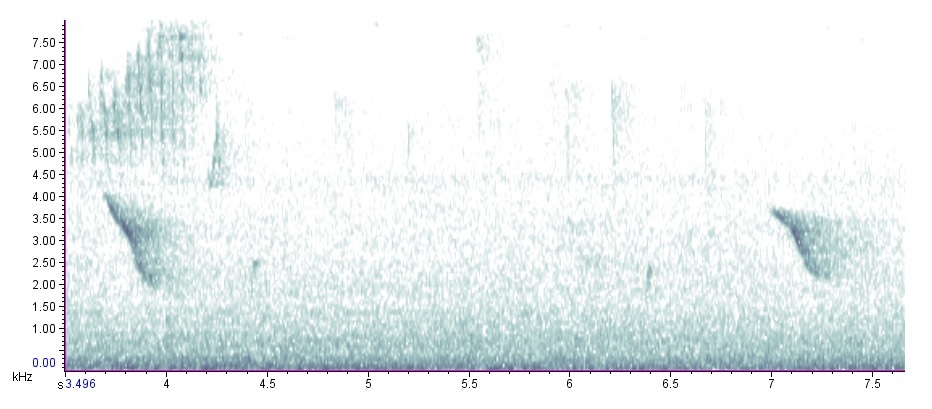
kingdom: Animalia
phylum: Chordata
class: Aves
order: Passeriformes
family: Turdidae
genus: Catharus
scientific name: Catharus fuscescens
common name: Veery
